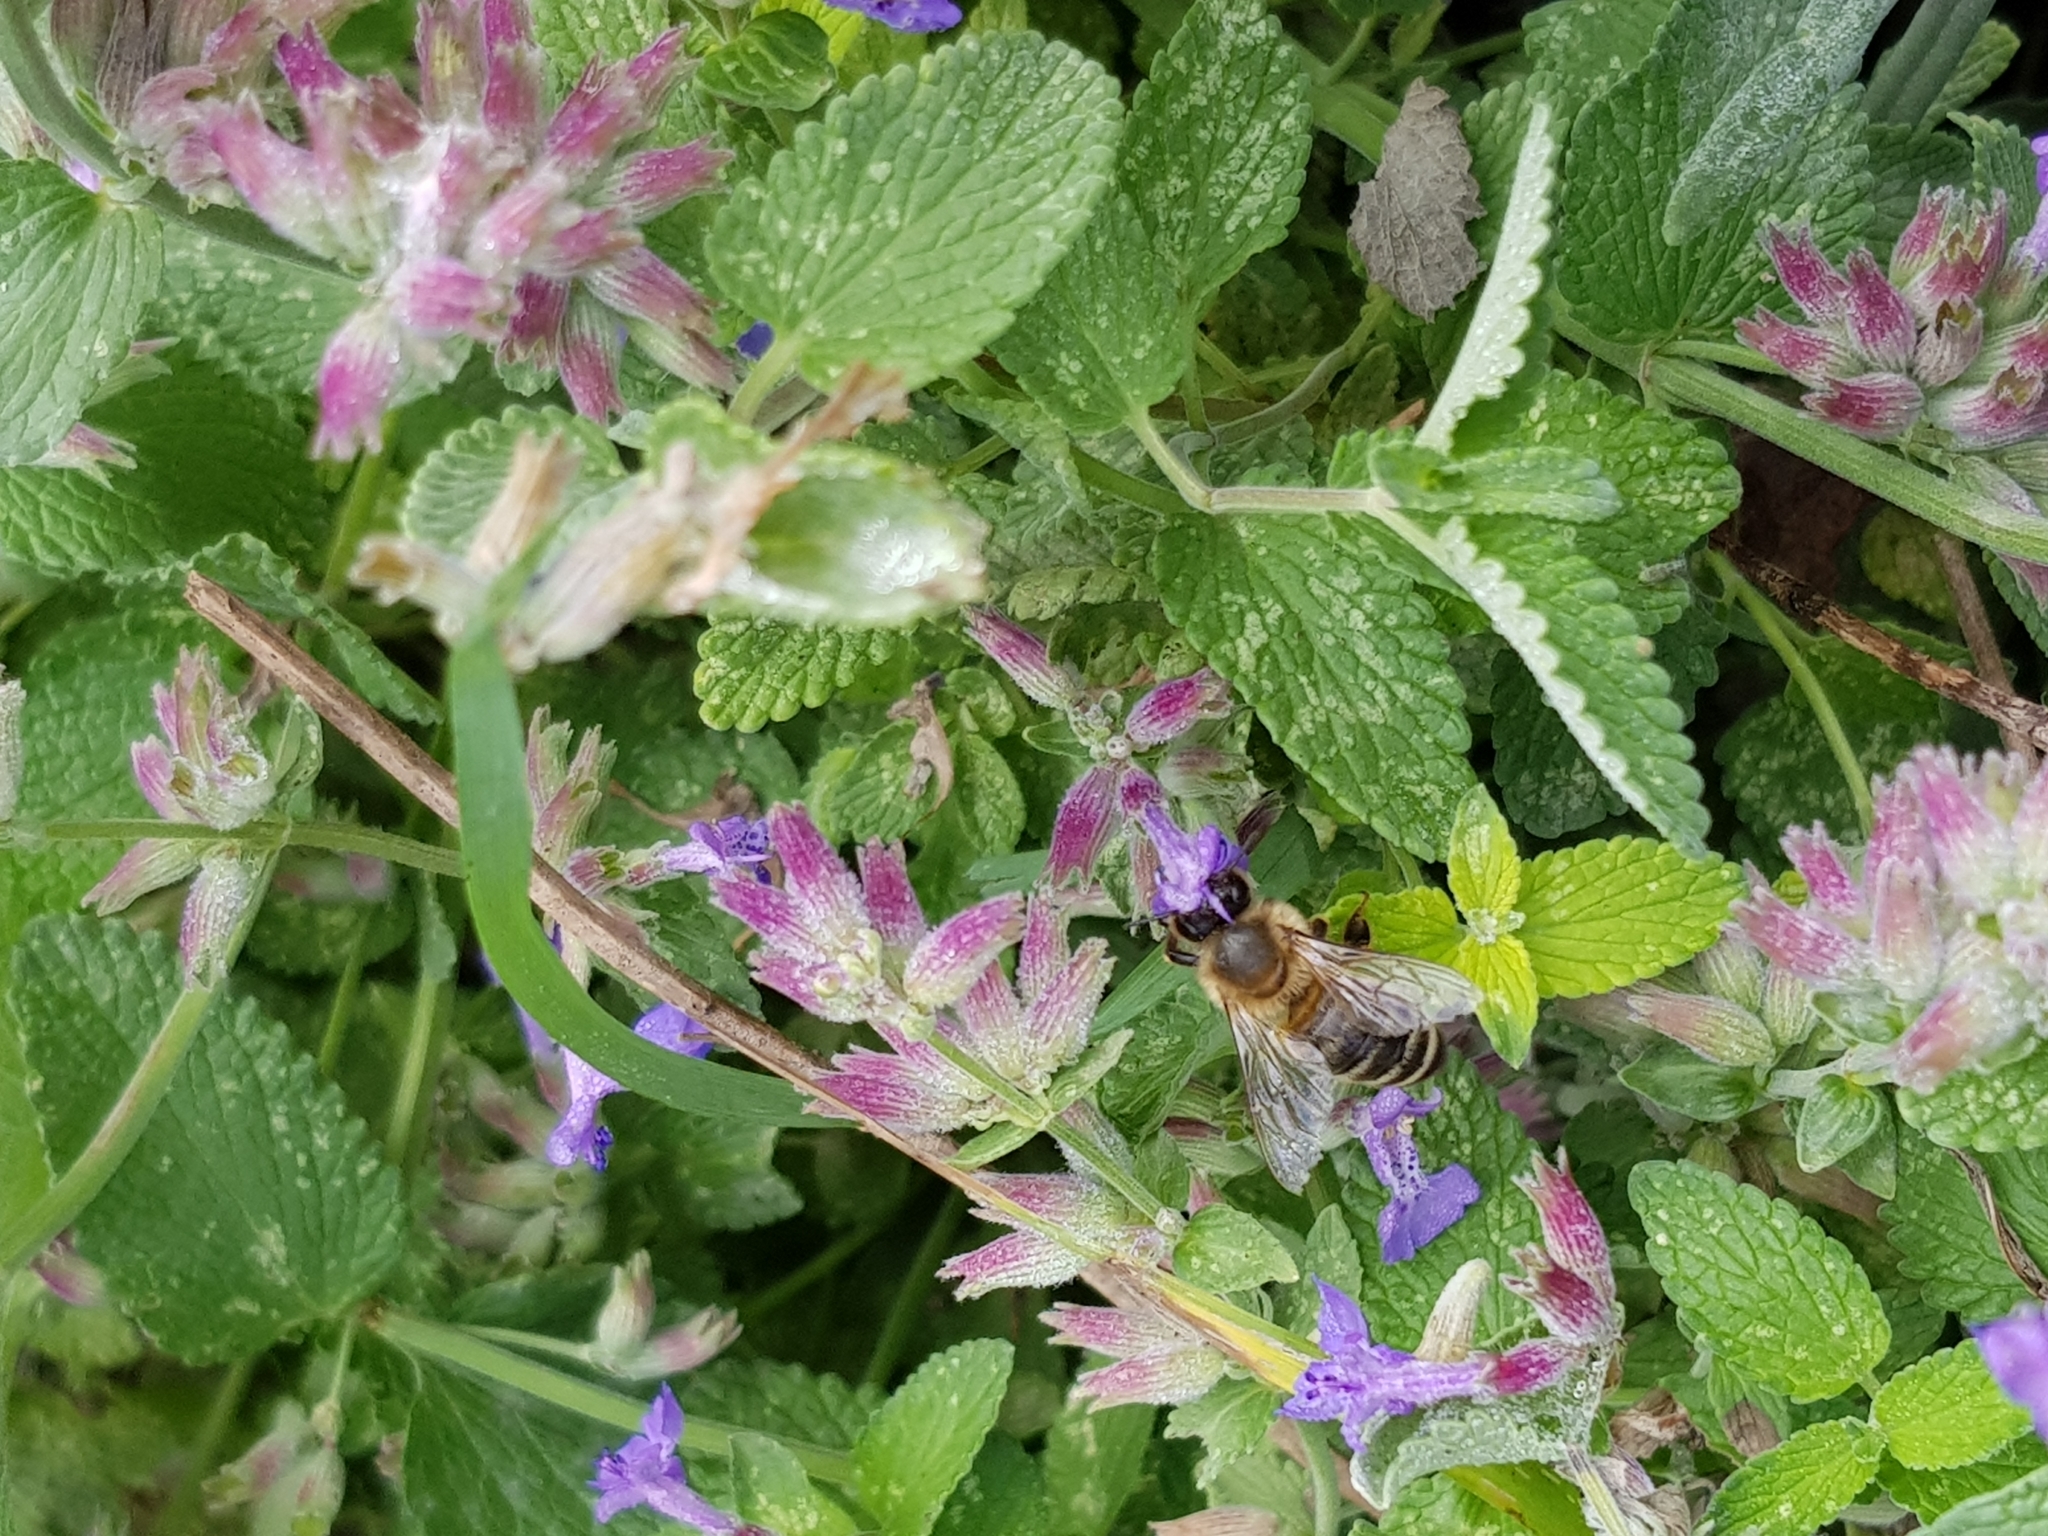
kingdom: Animalia
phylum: Arthropoda
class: Insecta
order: Hymenoptera
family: Apidae
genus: Apis
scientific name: Apis mellifera
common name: Honey bee
